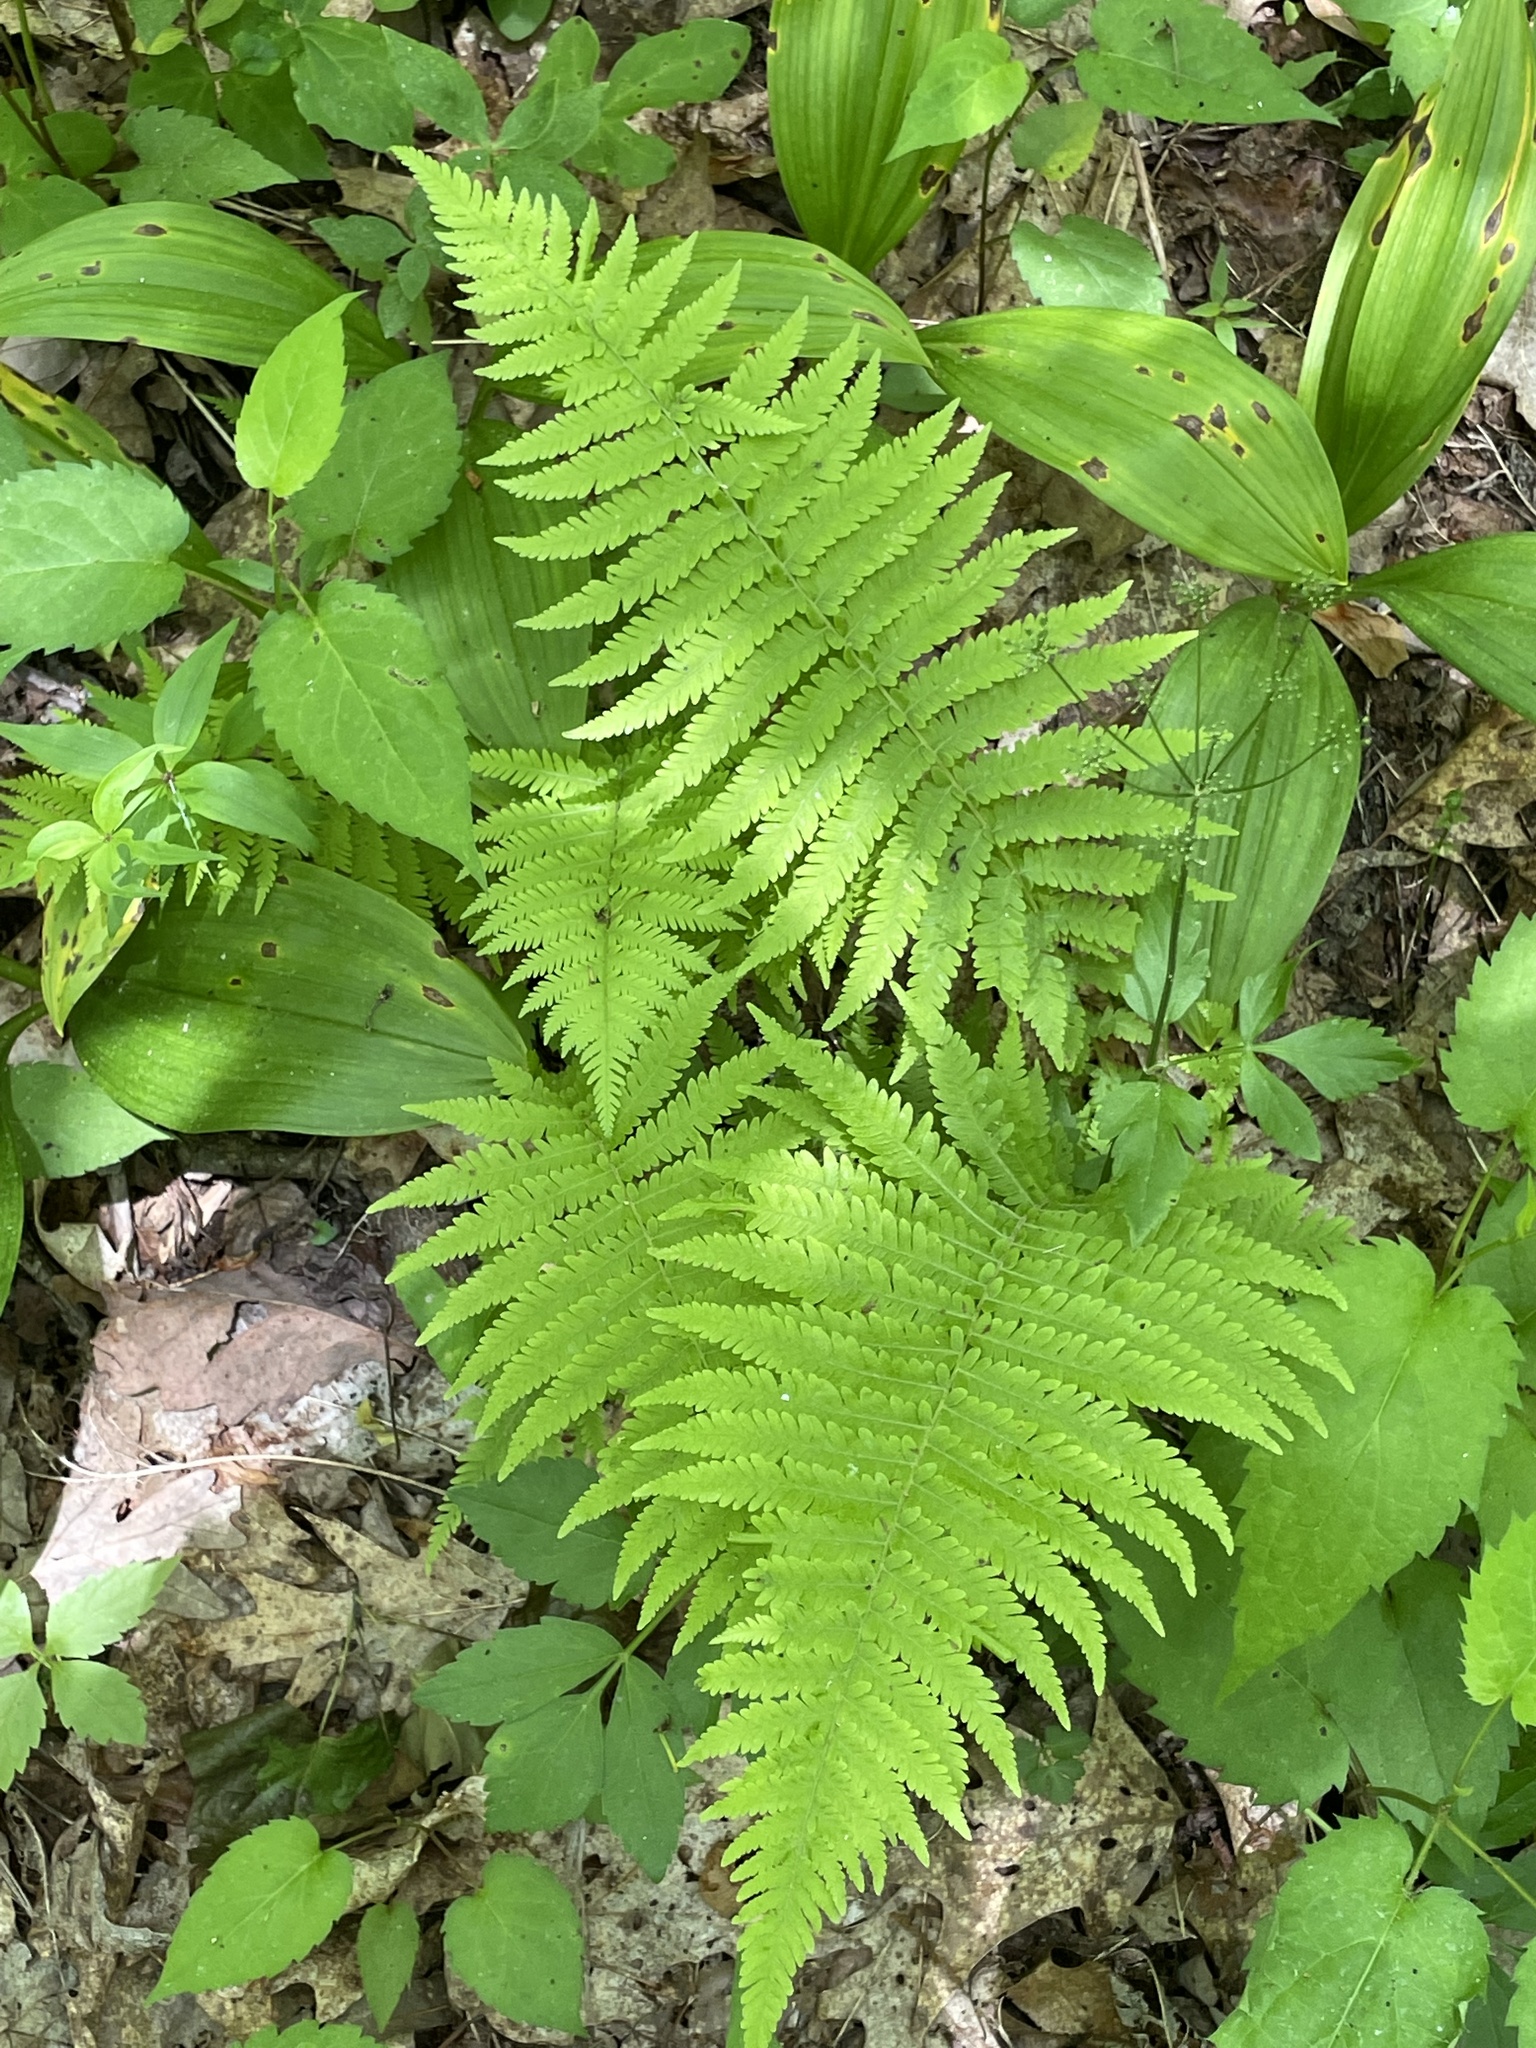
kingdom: Plantae
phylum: Tracheophyta
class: Polypodiopsida
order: Polypodiales
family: Athyriaceae
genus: Deparia
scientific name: Deparia acrostichoides
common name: Silver false spleenwort
